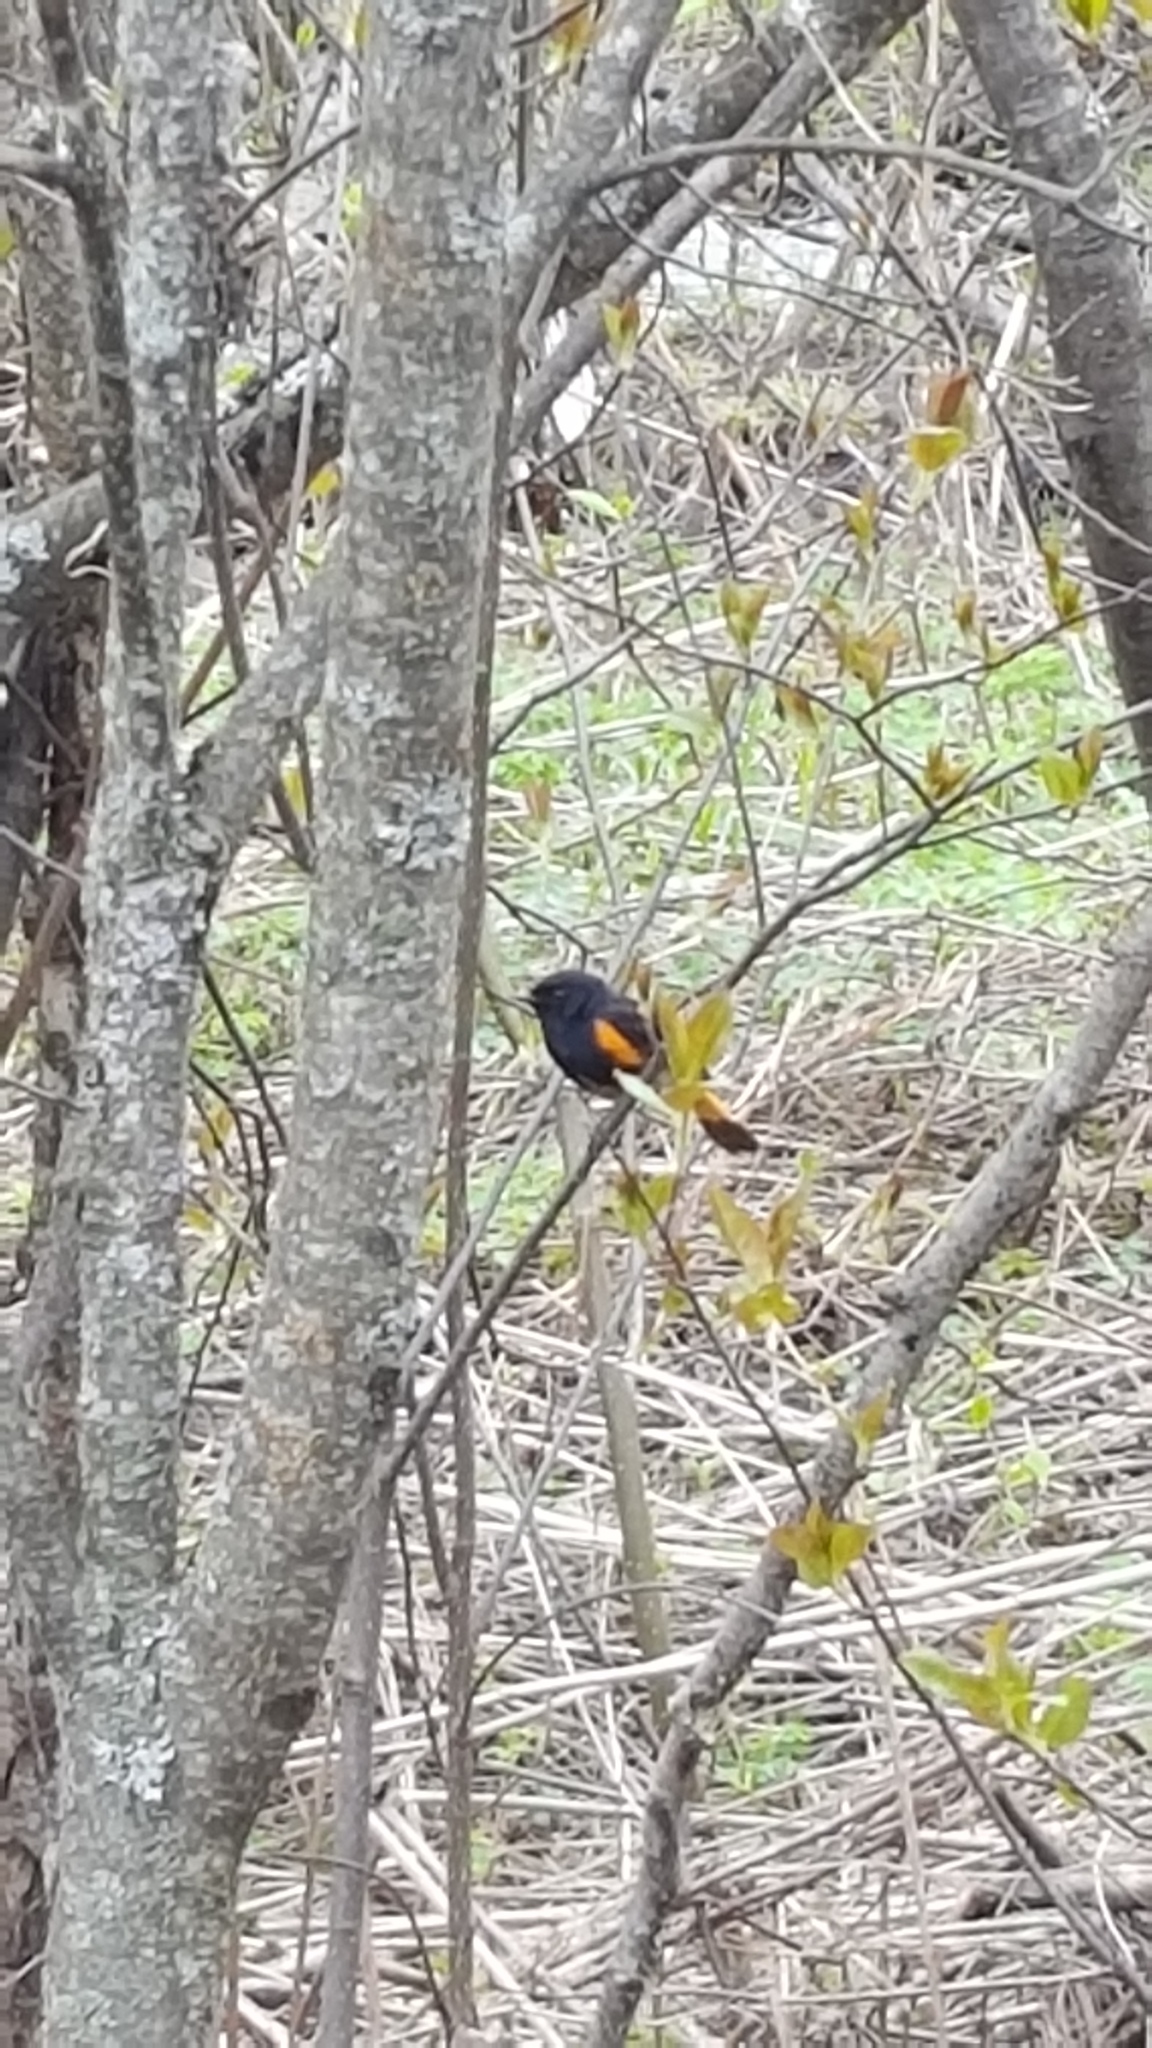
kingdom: Animalia
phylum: Chordata
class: Aves
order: Passeriformes
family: Parulidae
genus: Setophaga
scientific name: Setophaga ruticilla
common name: American redstart
